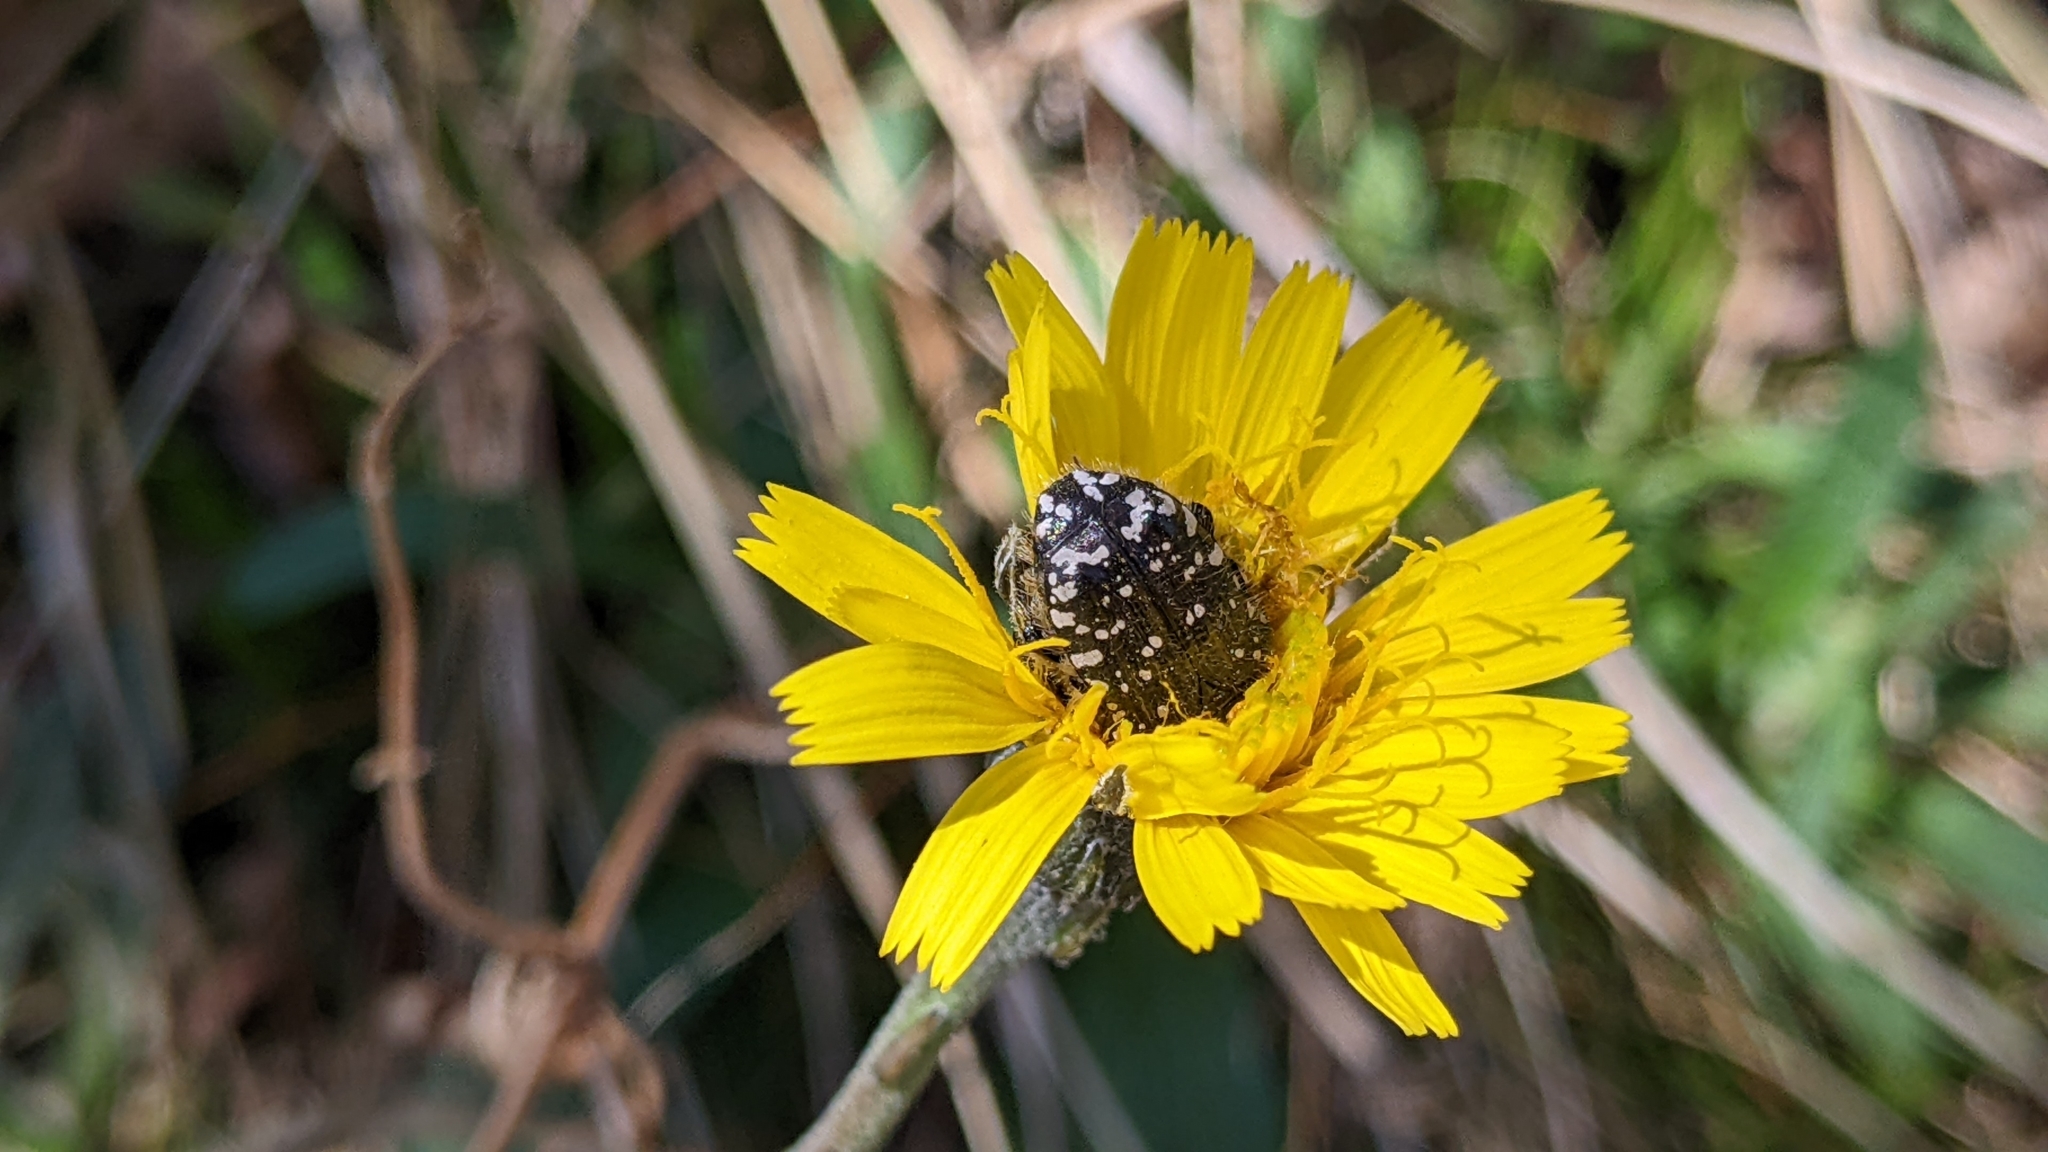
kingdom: Animalia
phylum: Arthropoda
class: Insecta
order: Coleoptera
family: Scarabaeidae
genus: Oxythyrea
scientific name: Oxythyrea funesta
